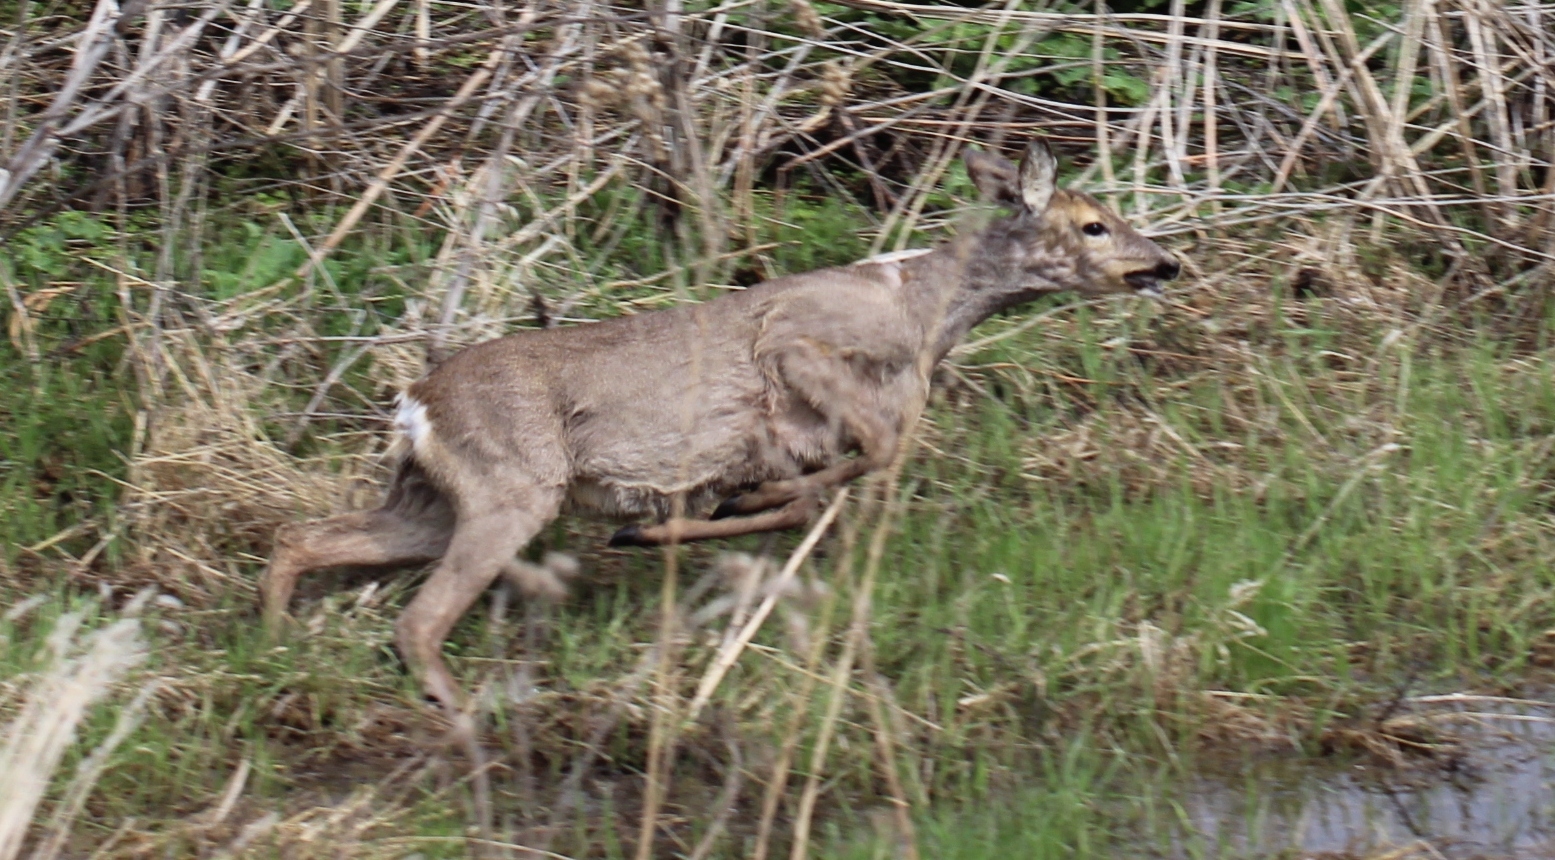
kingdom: Animalia
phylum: Chordata
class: Mammalia
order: Artiodactyla
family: Cervidae
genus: Capreolus
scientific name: Capreolus capreolus
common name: Western roe deer
